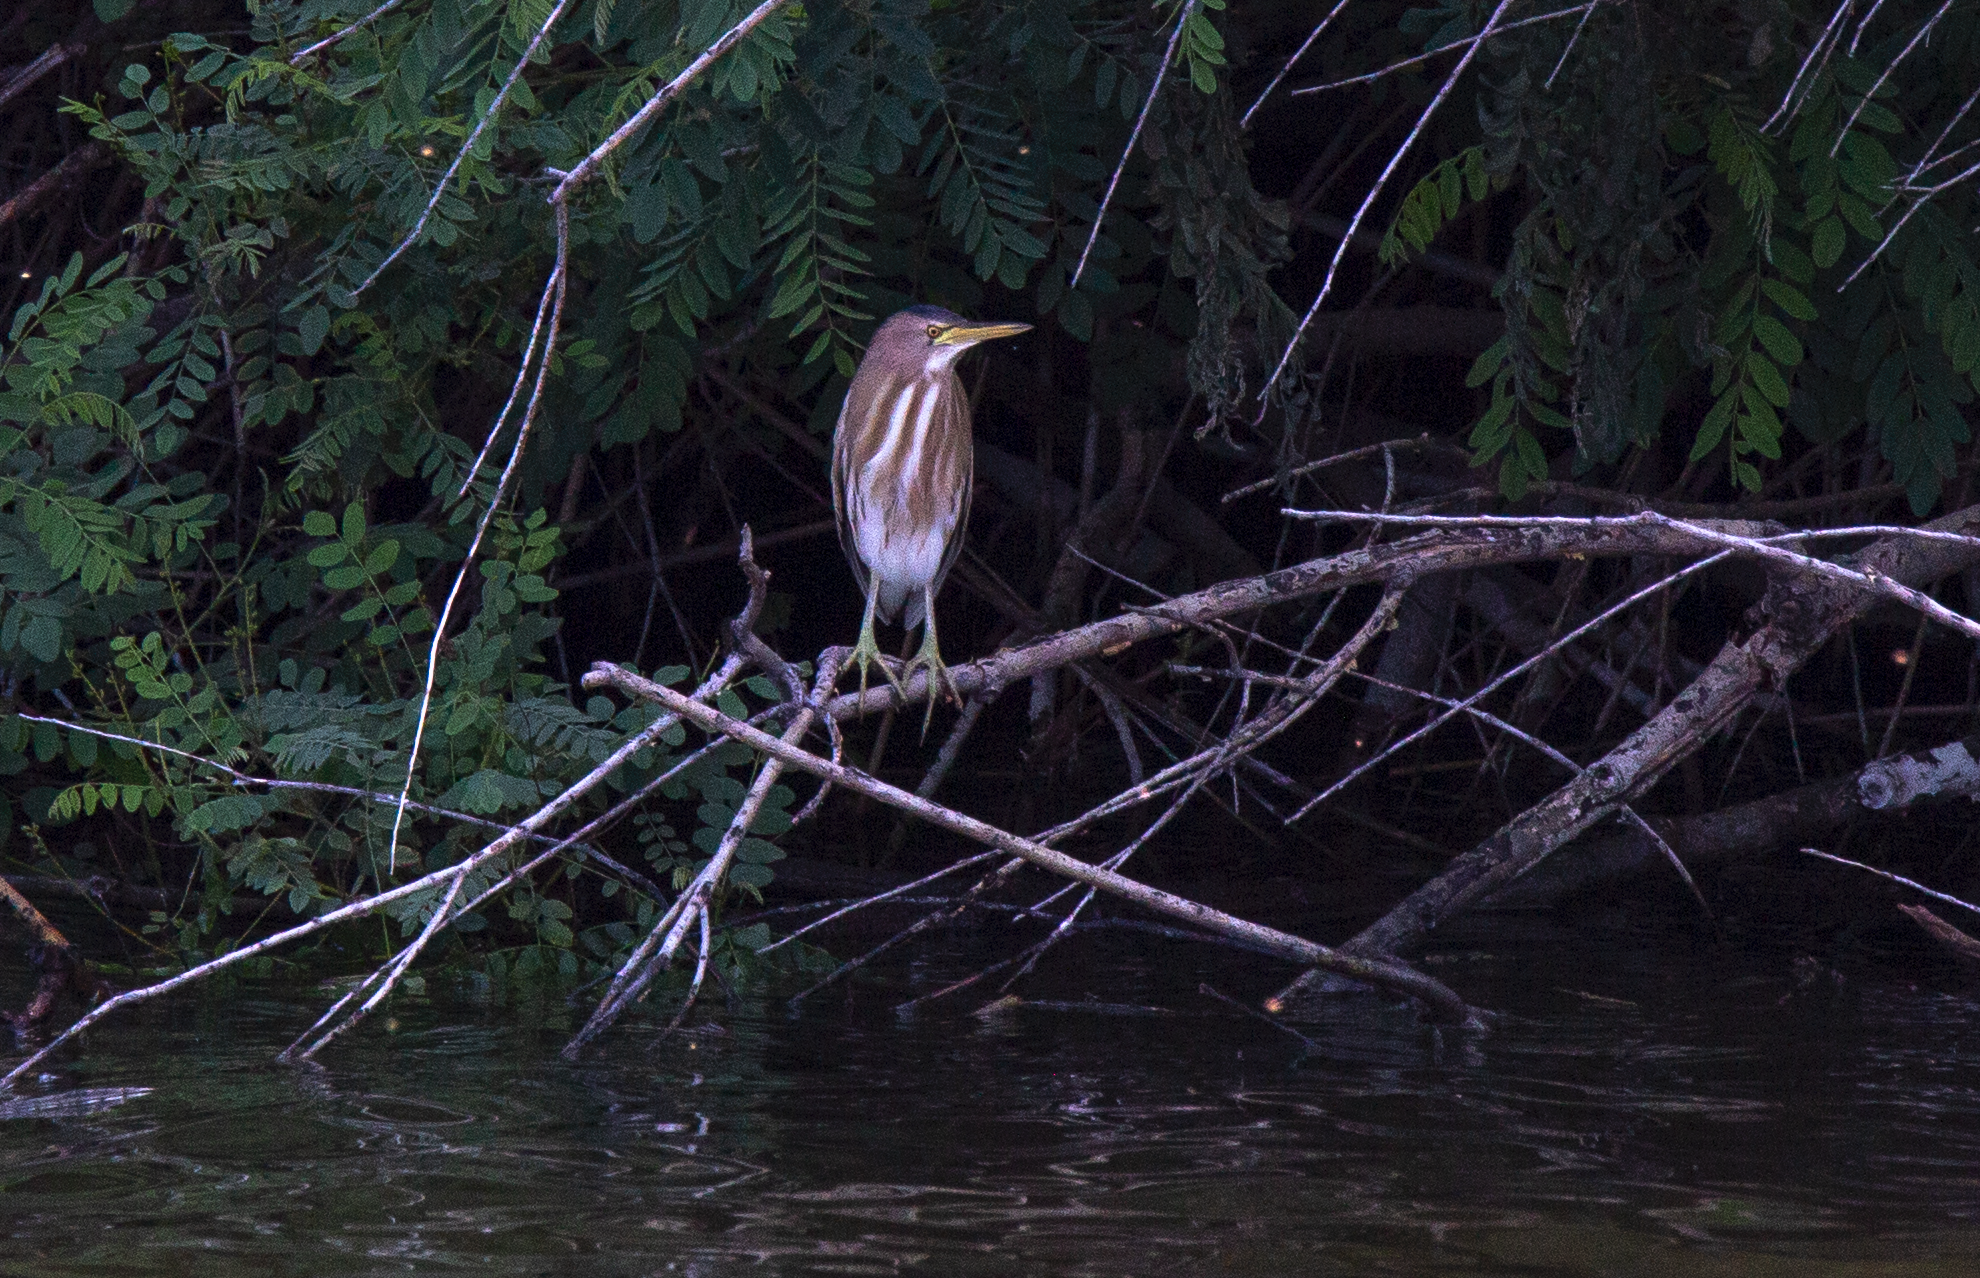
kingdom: Animalia
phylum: Chordata
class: Aves
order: Pelecaniformes
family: Ardeidae
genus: Ixobrychus
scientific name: Ixobrychus minutus
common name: Little bittern
